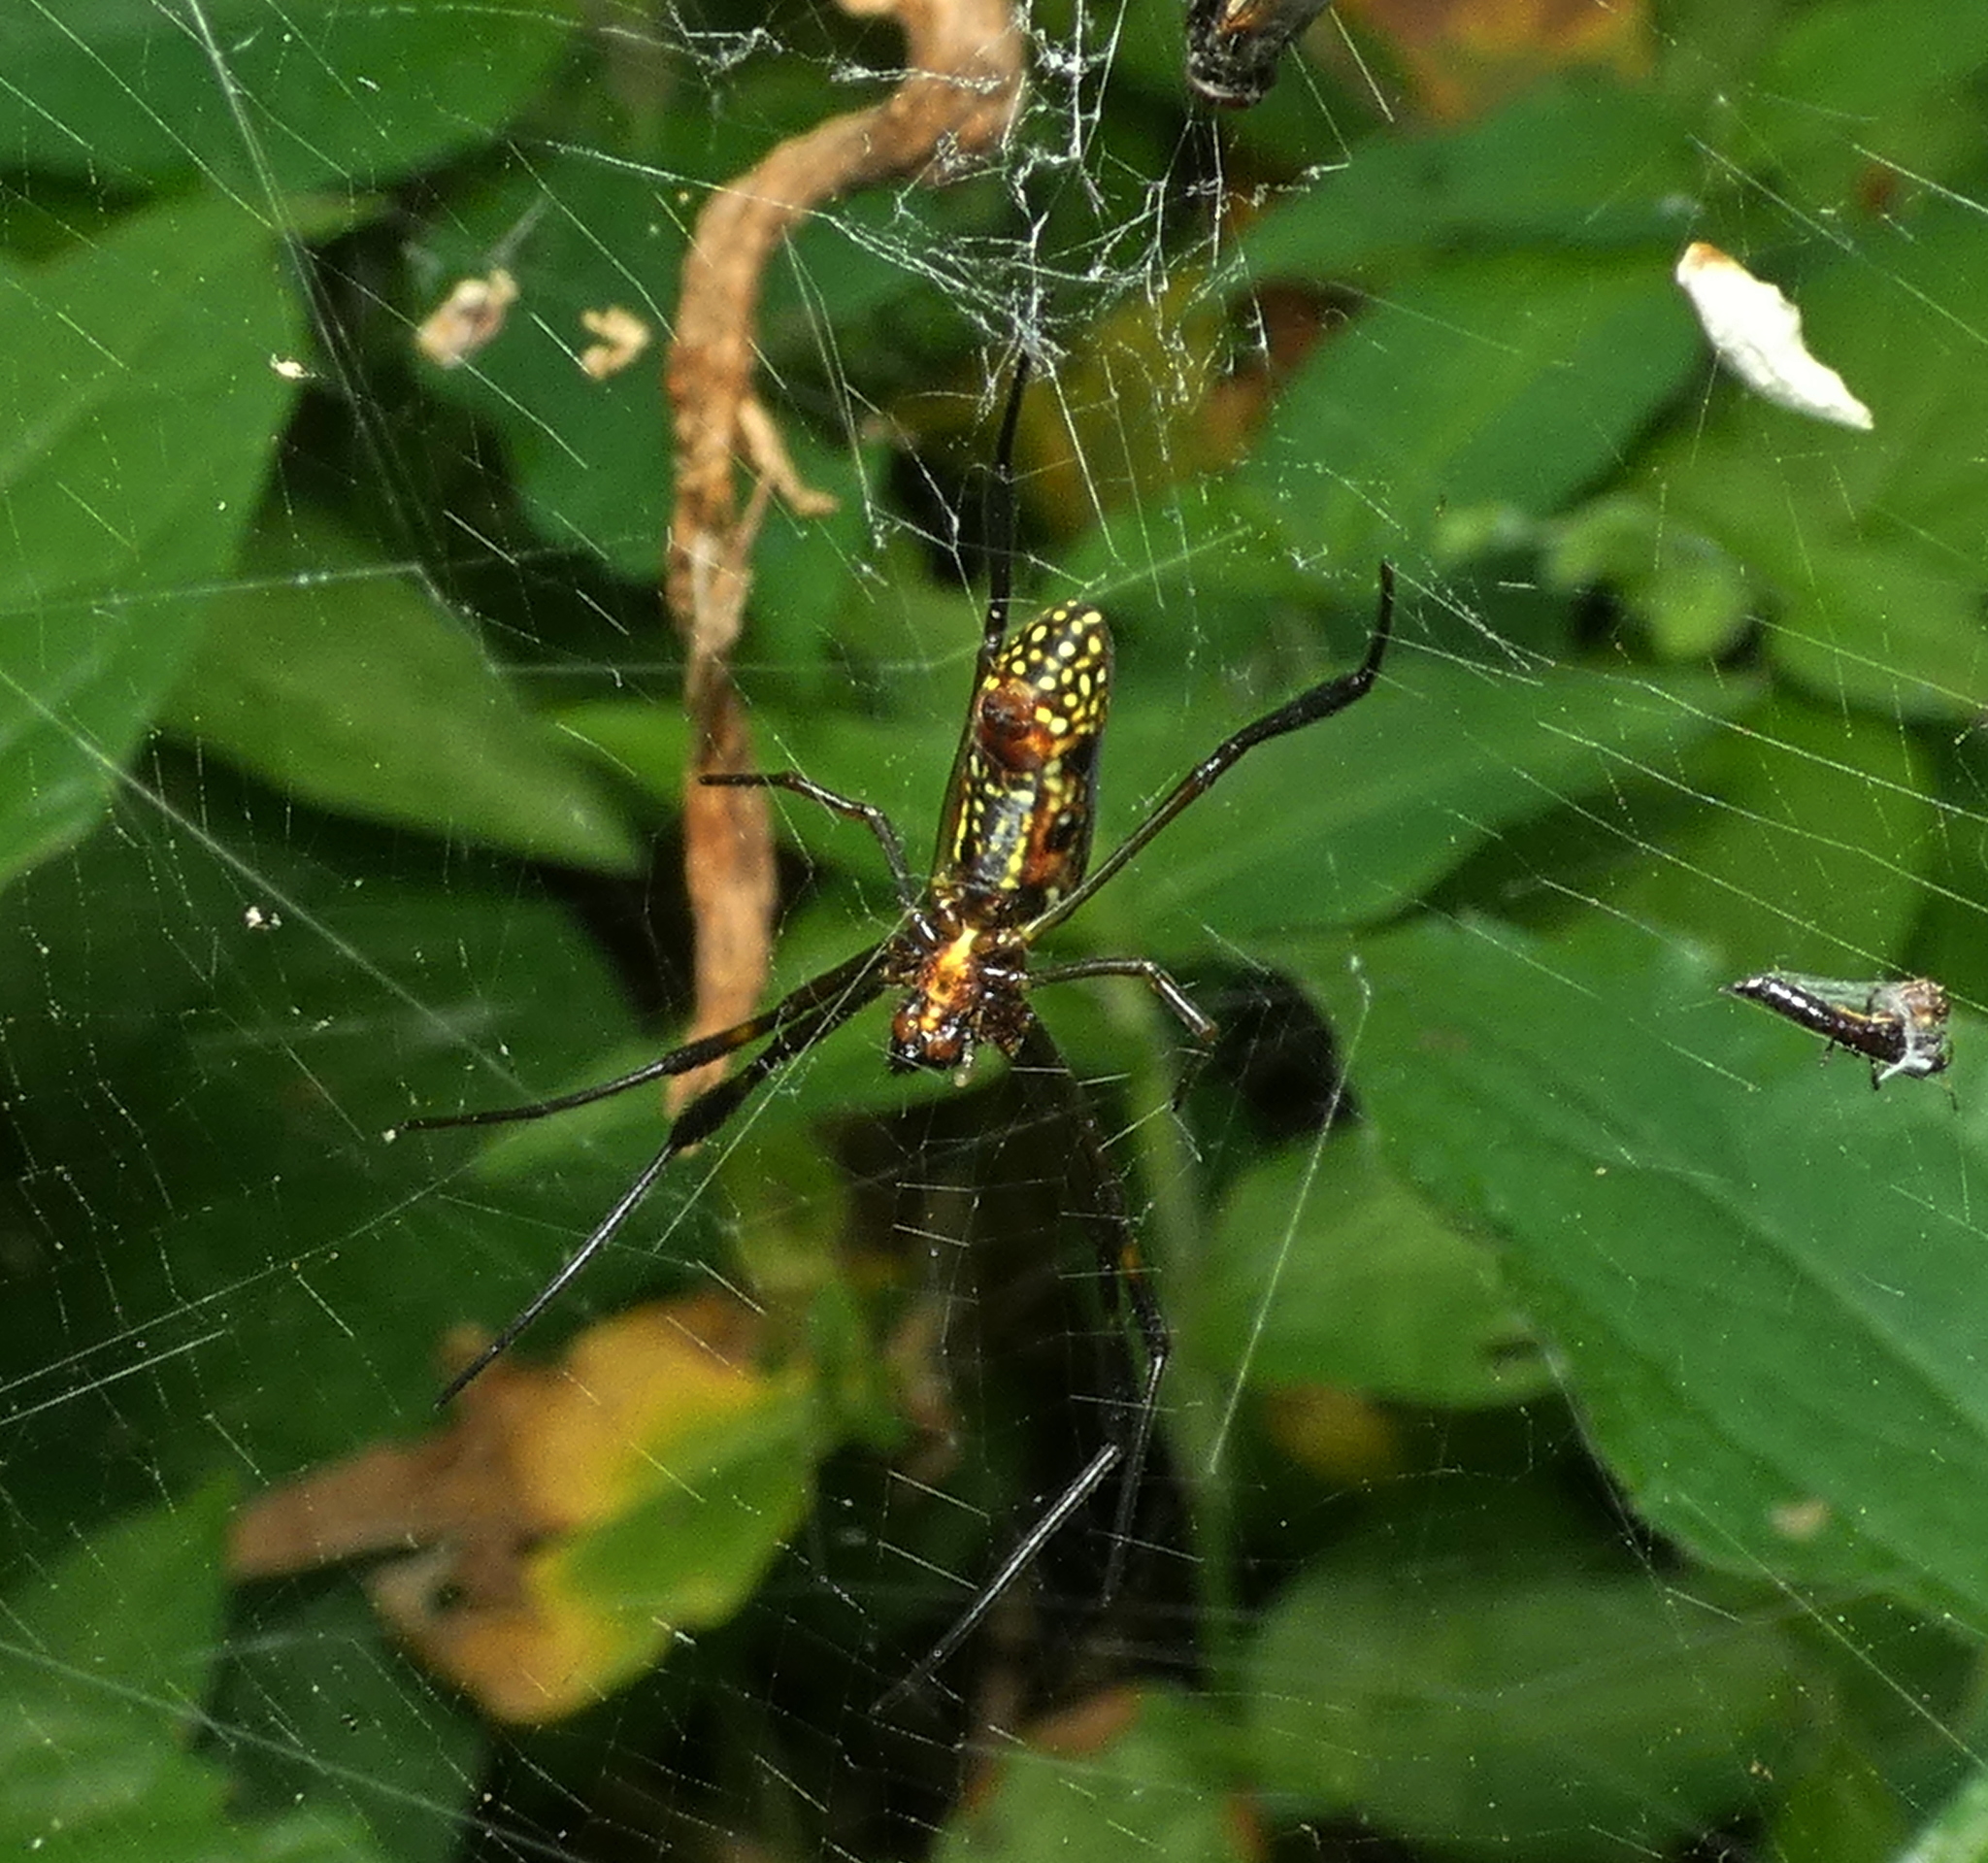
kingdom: Animalia
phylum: Arthropoda
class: Arachnida
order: Araneae
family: Araneidae
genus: Trichonephila
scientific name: Trichonephila clavipes
